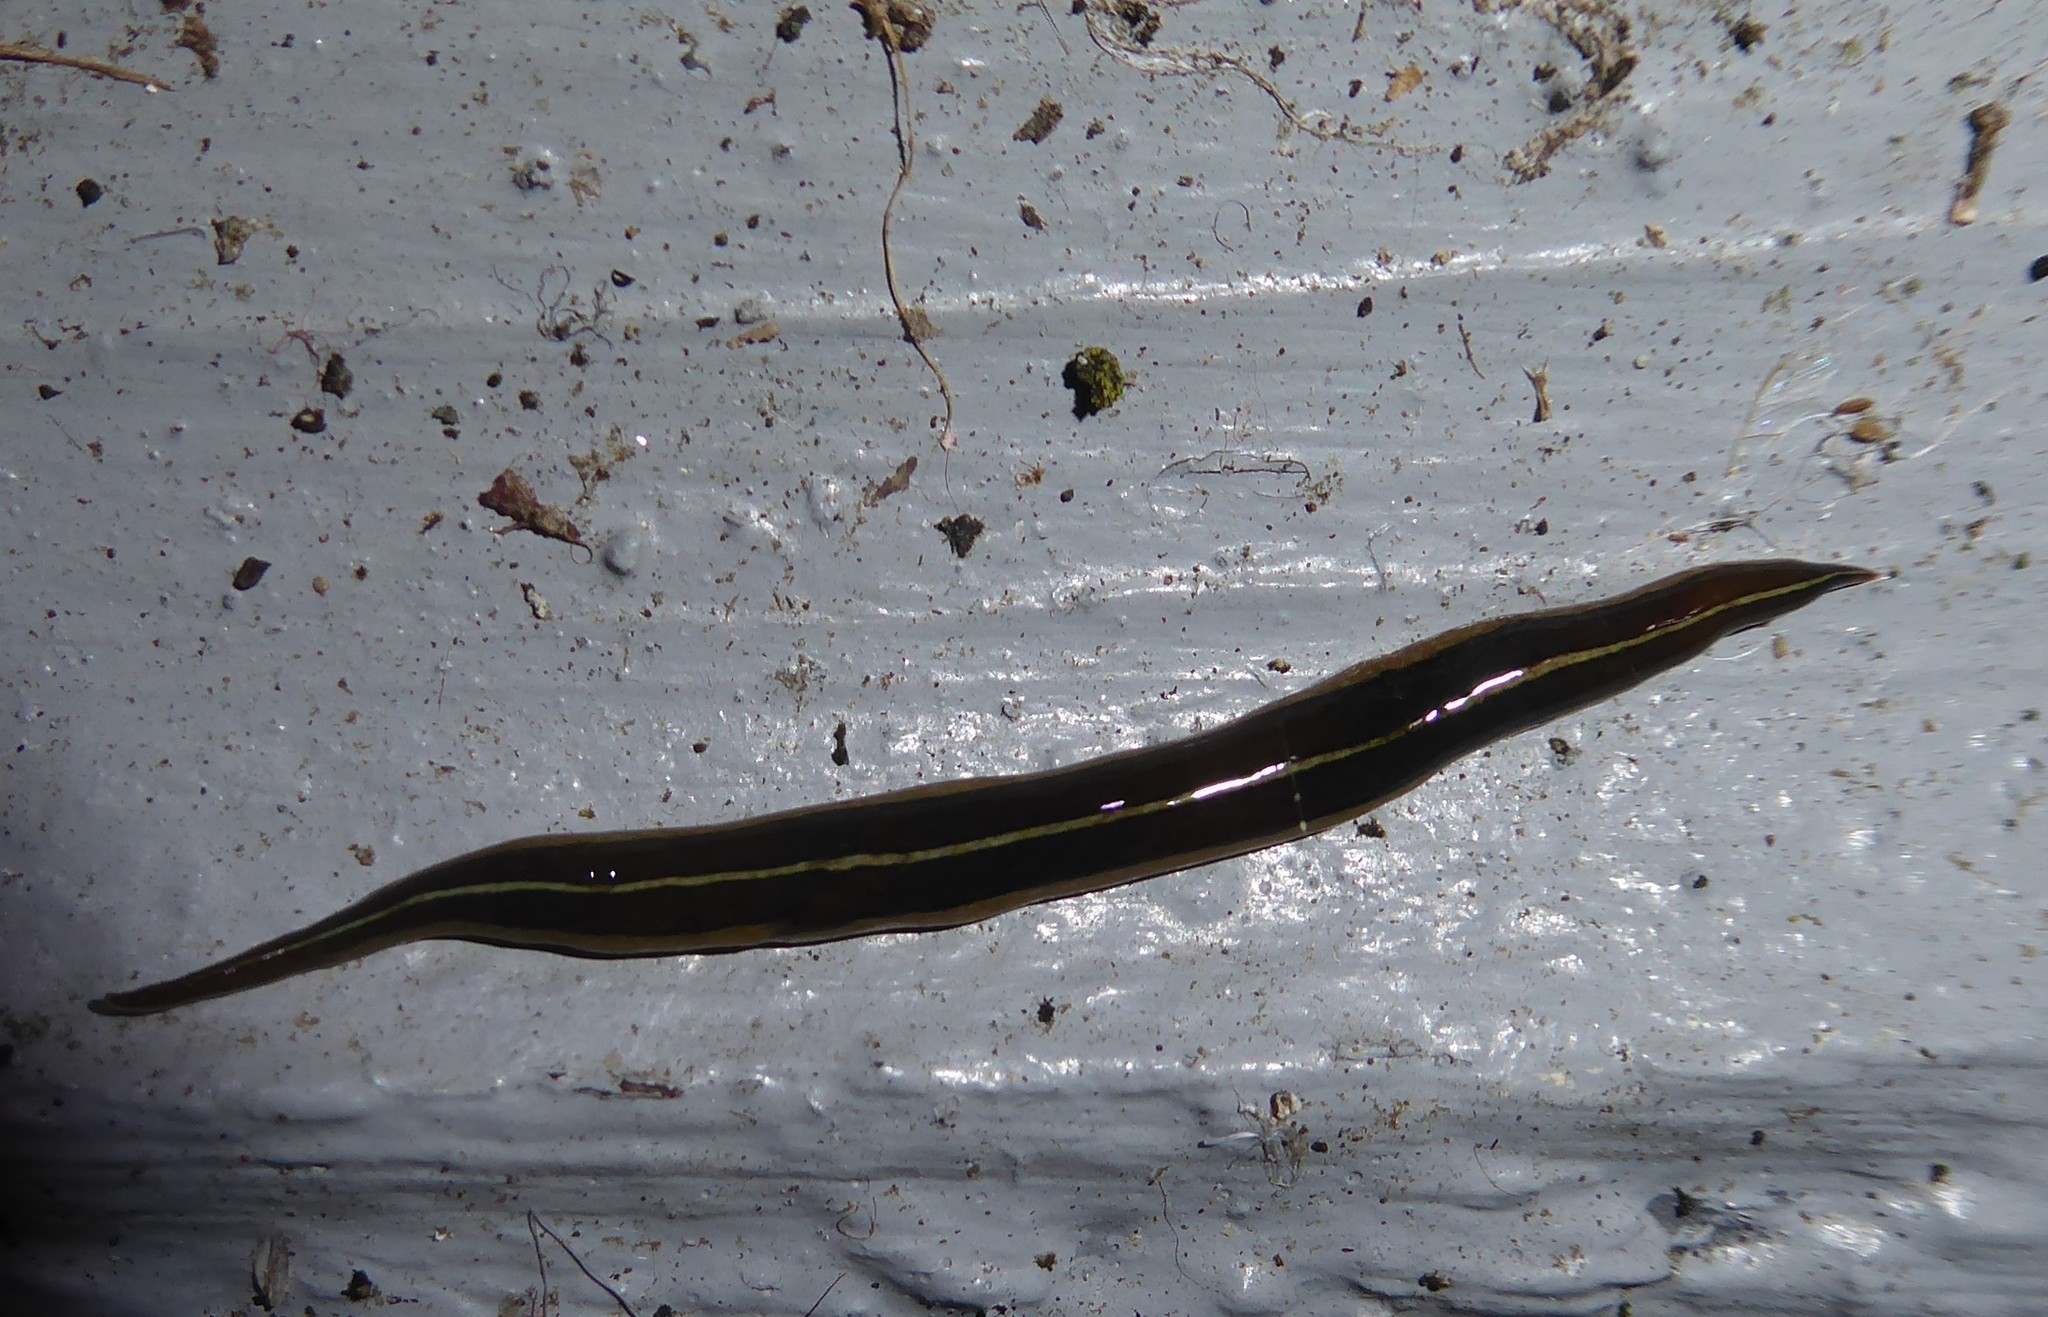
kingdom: Animalia
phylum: Platyhelminthes
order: Tricladida
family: Geoplanidae
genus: Newzealandia
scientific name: Newzealandia graffii
